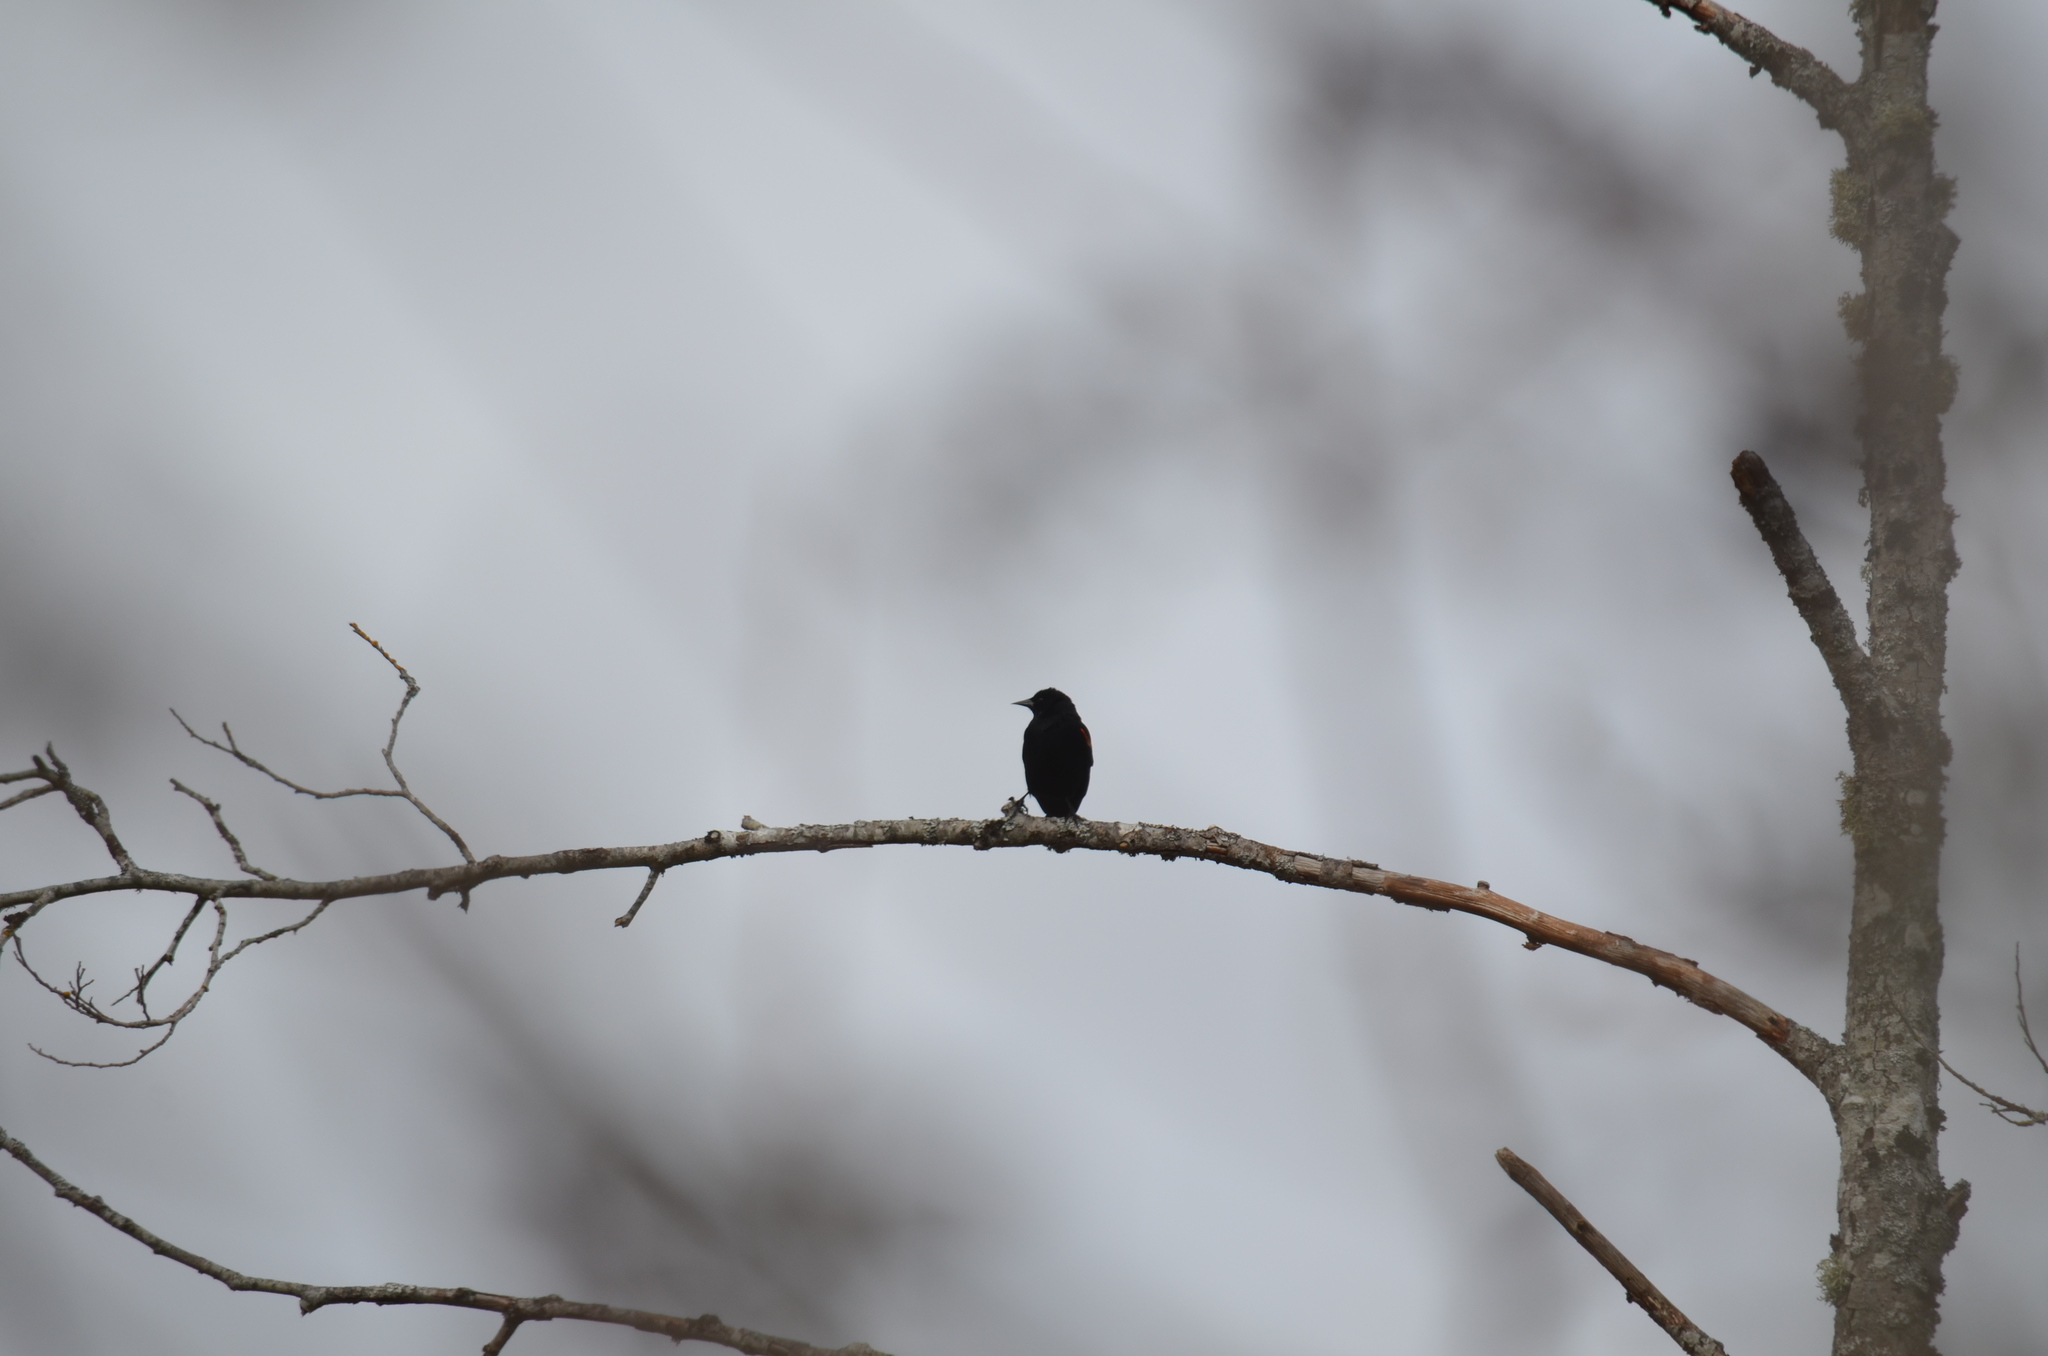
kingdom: Animalia
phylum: Chordata
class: Aves
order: Passeriformes
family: Icteridae
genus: Agelaius
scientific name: Agelaius phoeniceus
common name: Red-winged blackbird
